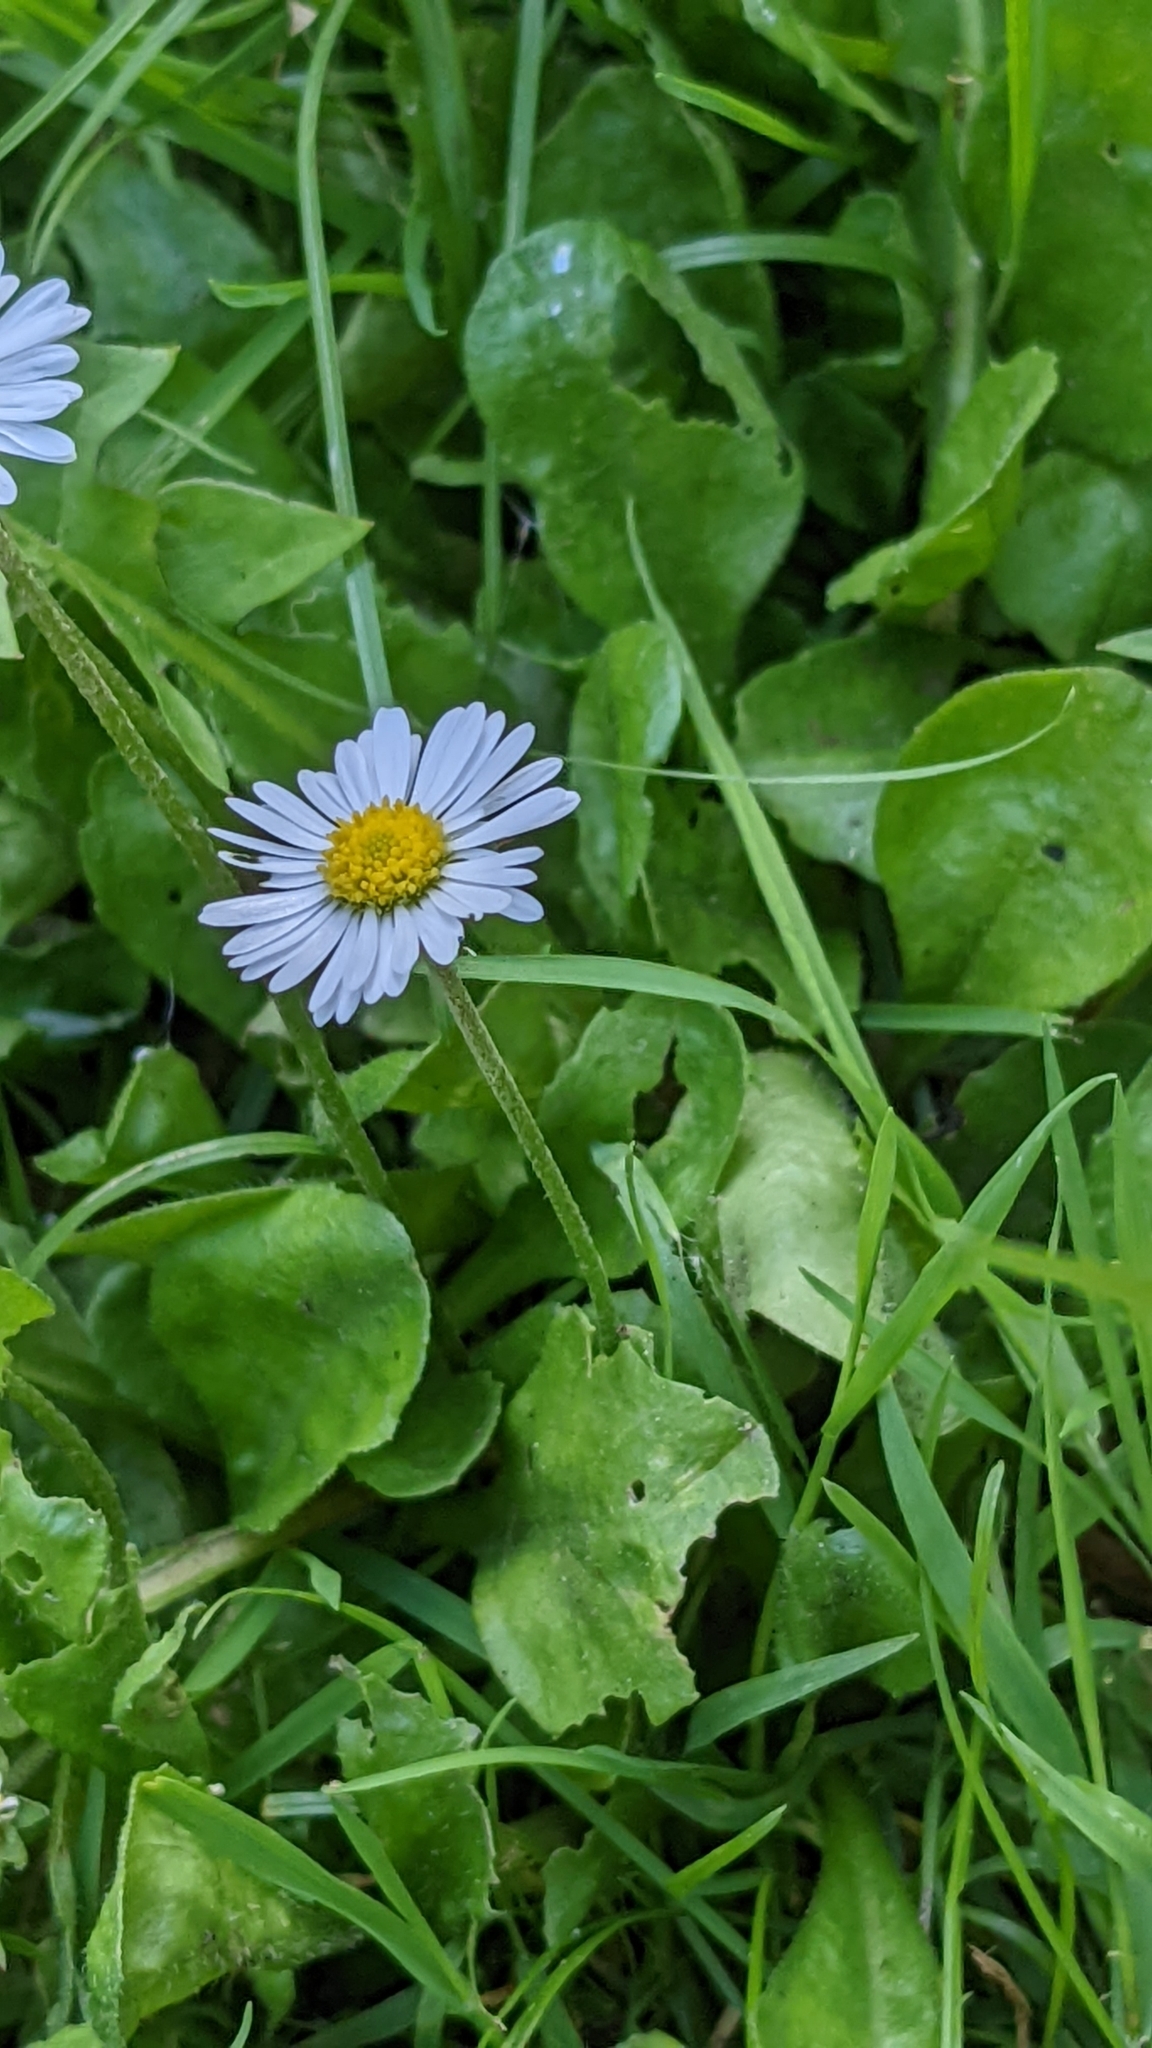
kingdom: Plantae
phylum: Tracheophyta
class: Magnoliopsida
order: Asterales
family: Asteraceae
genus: Bellis
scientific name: Bellis perennis
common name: Lawndaisy
